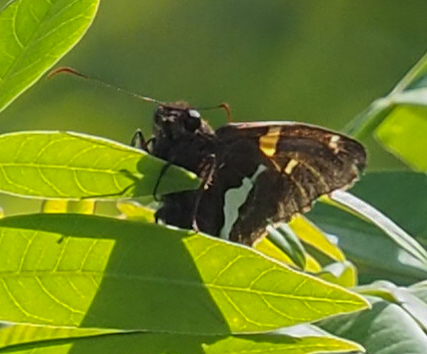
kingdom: Animalia
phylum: Arthropoda
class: Insecta
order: Lepidoptera
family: Hesperiidae
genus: Epargyreus
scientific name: Epargyreus clarus
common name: Silver-spotted skipper
